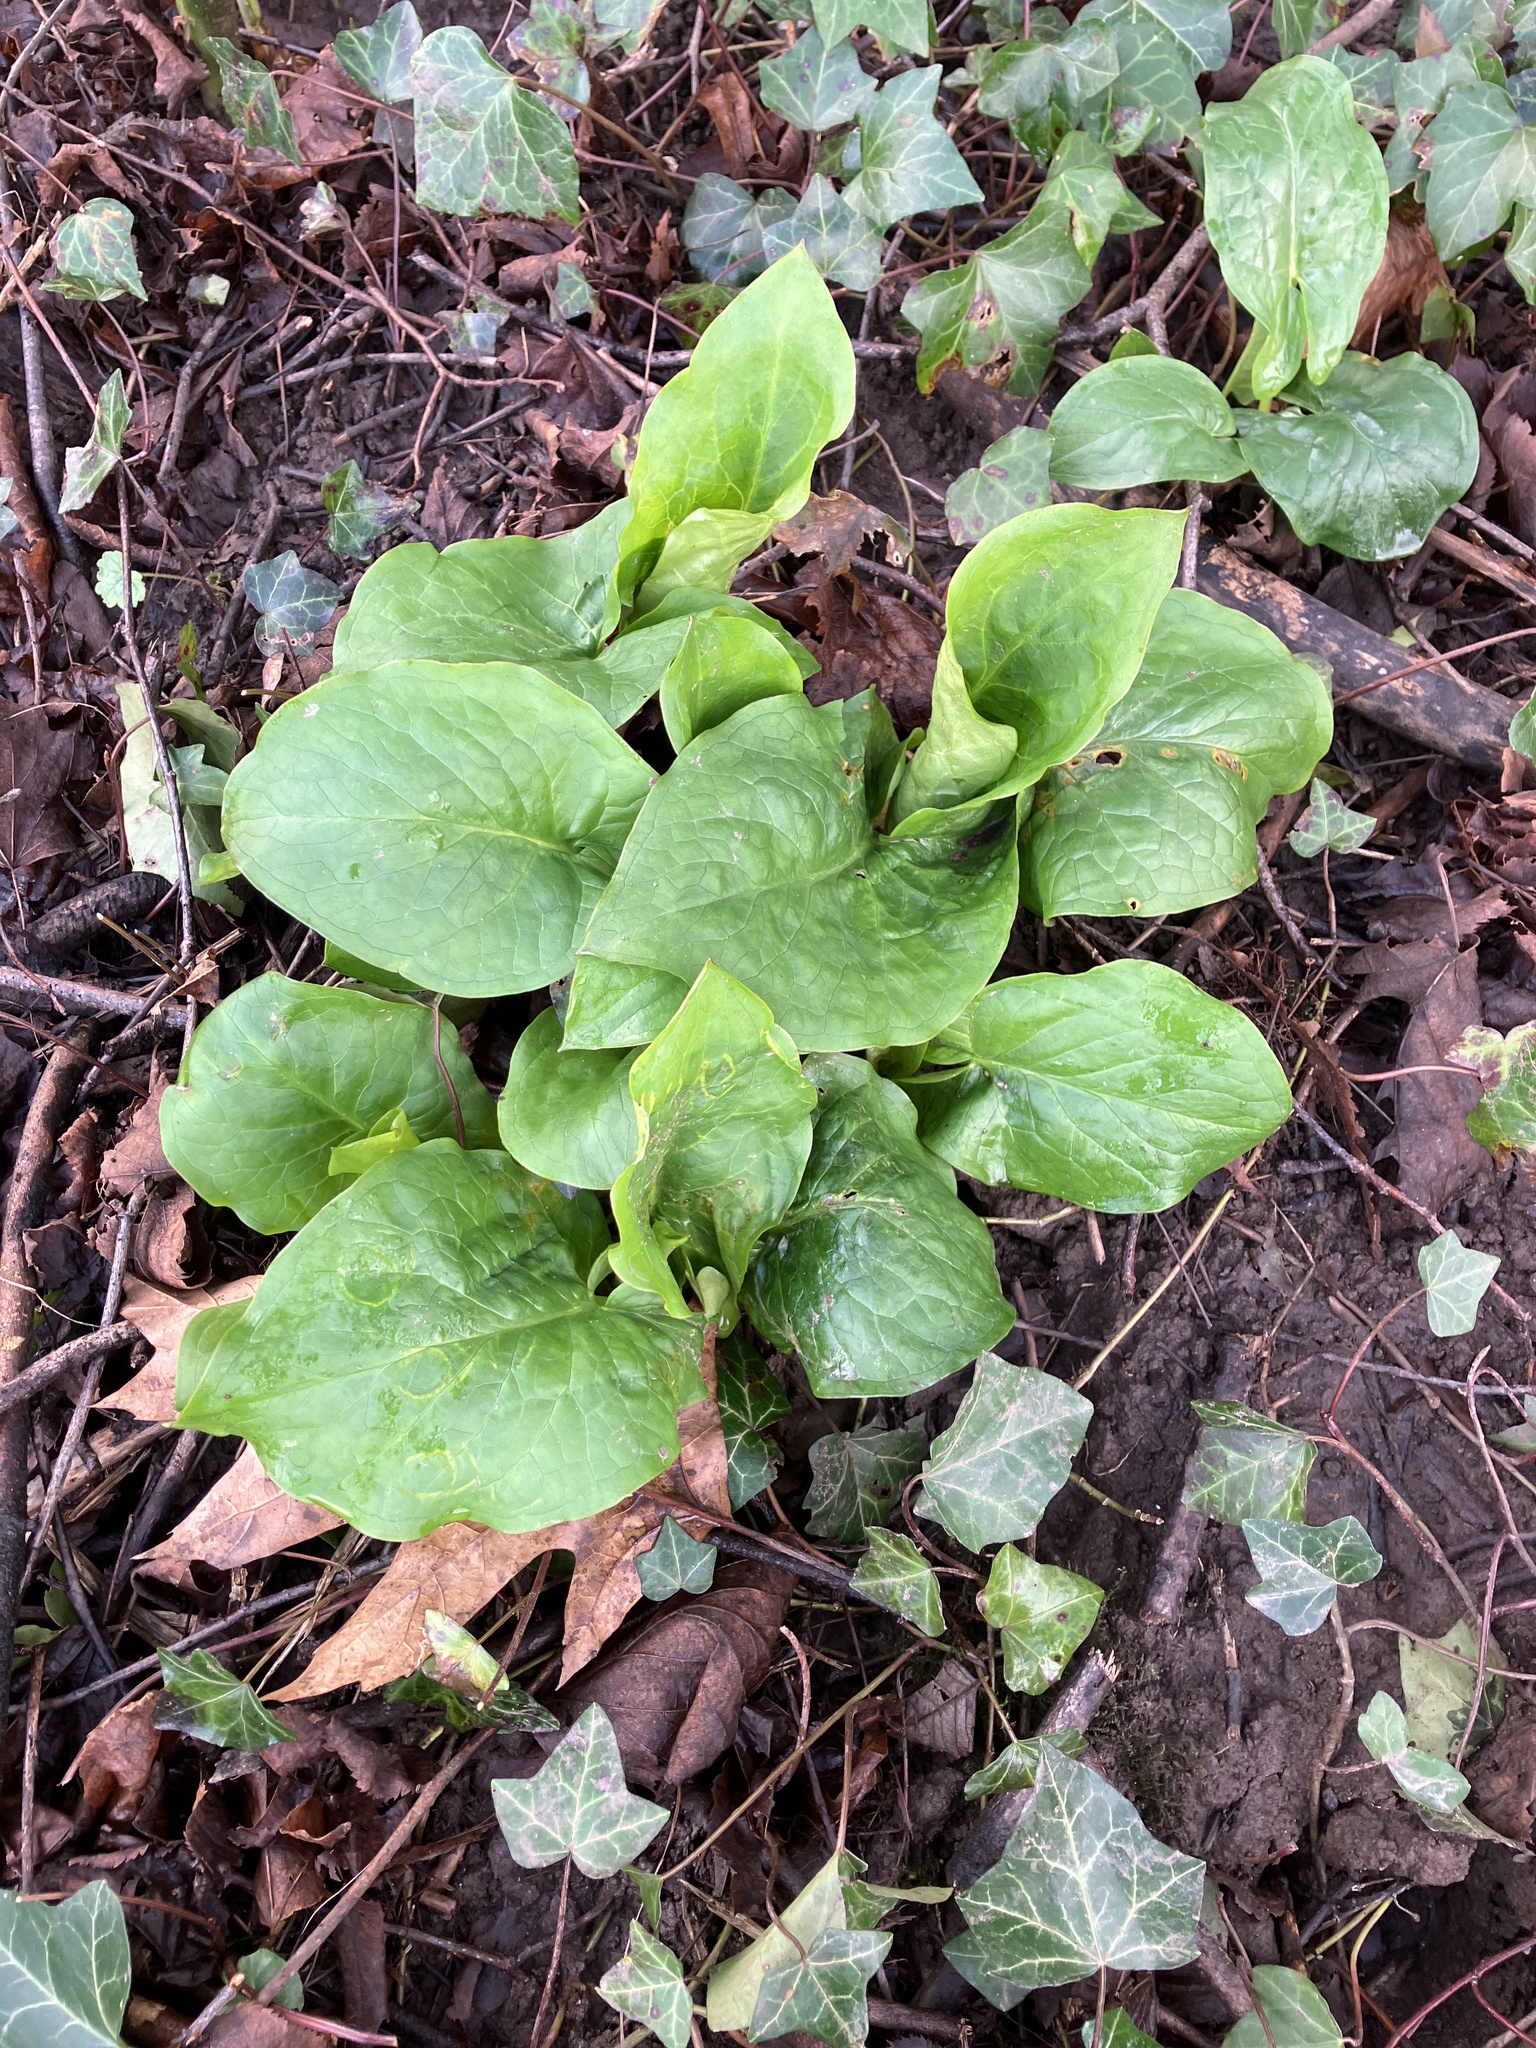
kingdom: Plantae
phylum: Tracheophyta
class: Liliopsida
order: Alismatales
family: Araceae
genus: Arum
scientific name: Arum maculatum
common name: Lords-and-ladies
